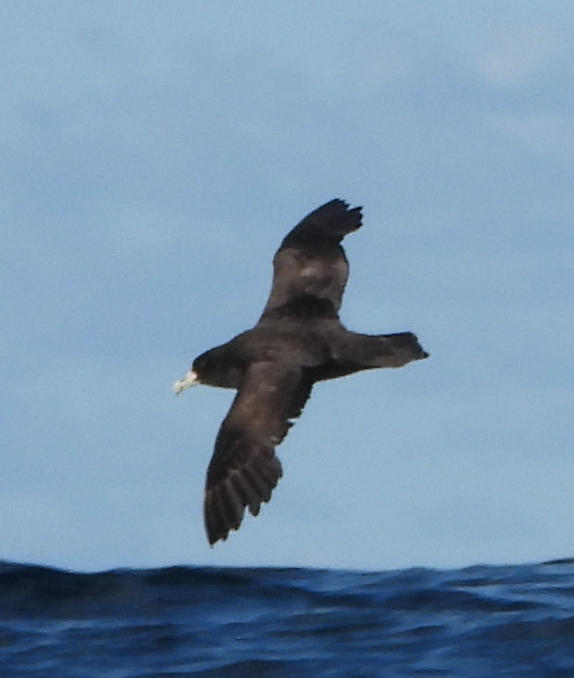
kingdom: Animalia
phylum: Chordata
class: Aves
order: Procellariiformes
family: Procellariidae
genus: Procellaria
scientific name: Procellaria aequinoctialis
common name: White-chinned petrel
